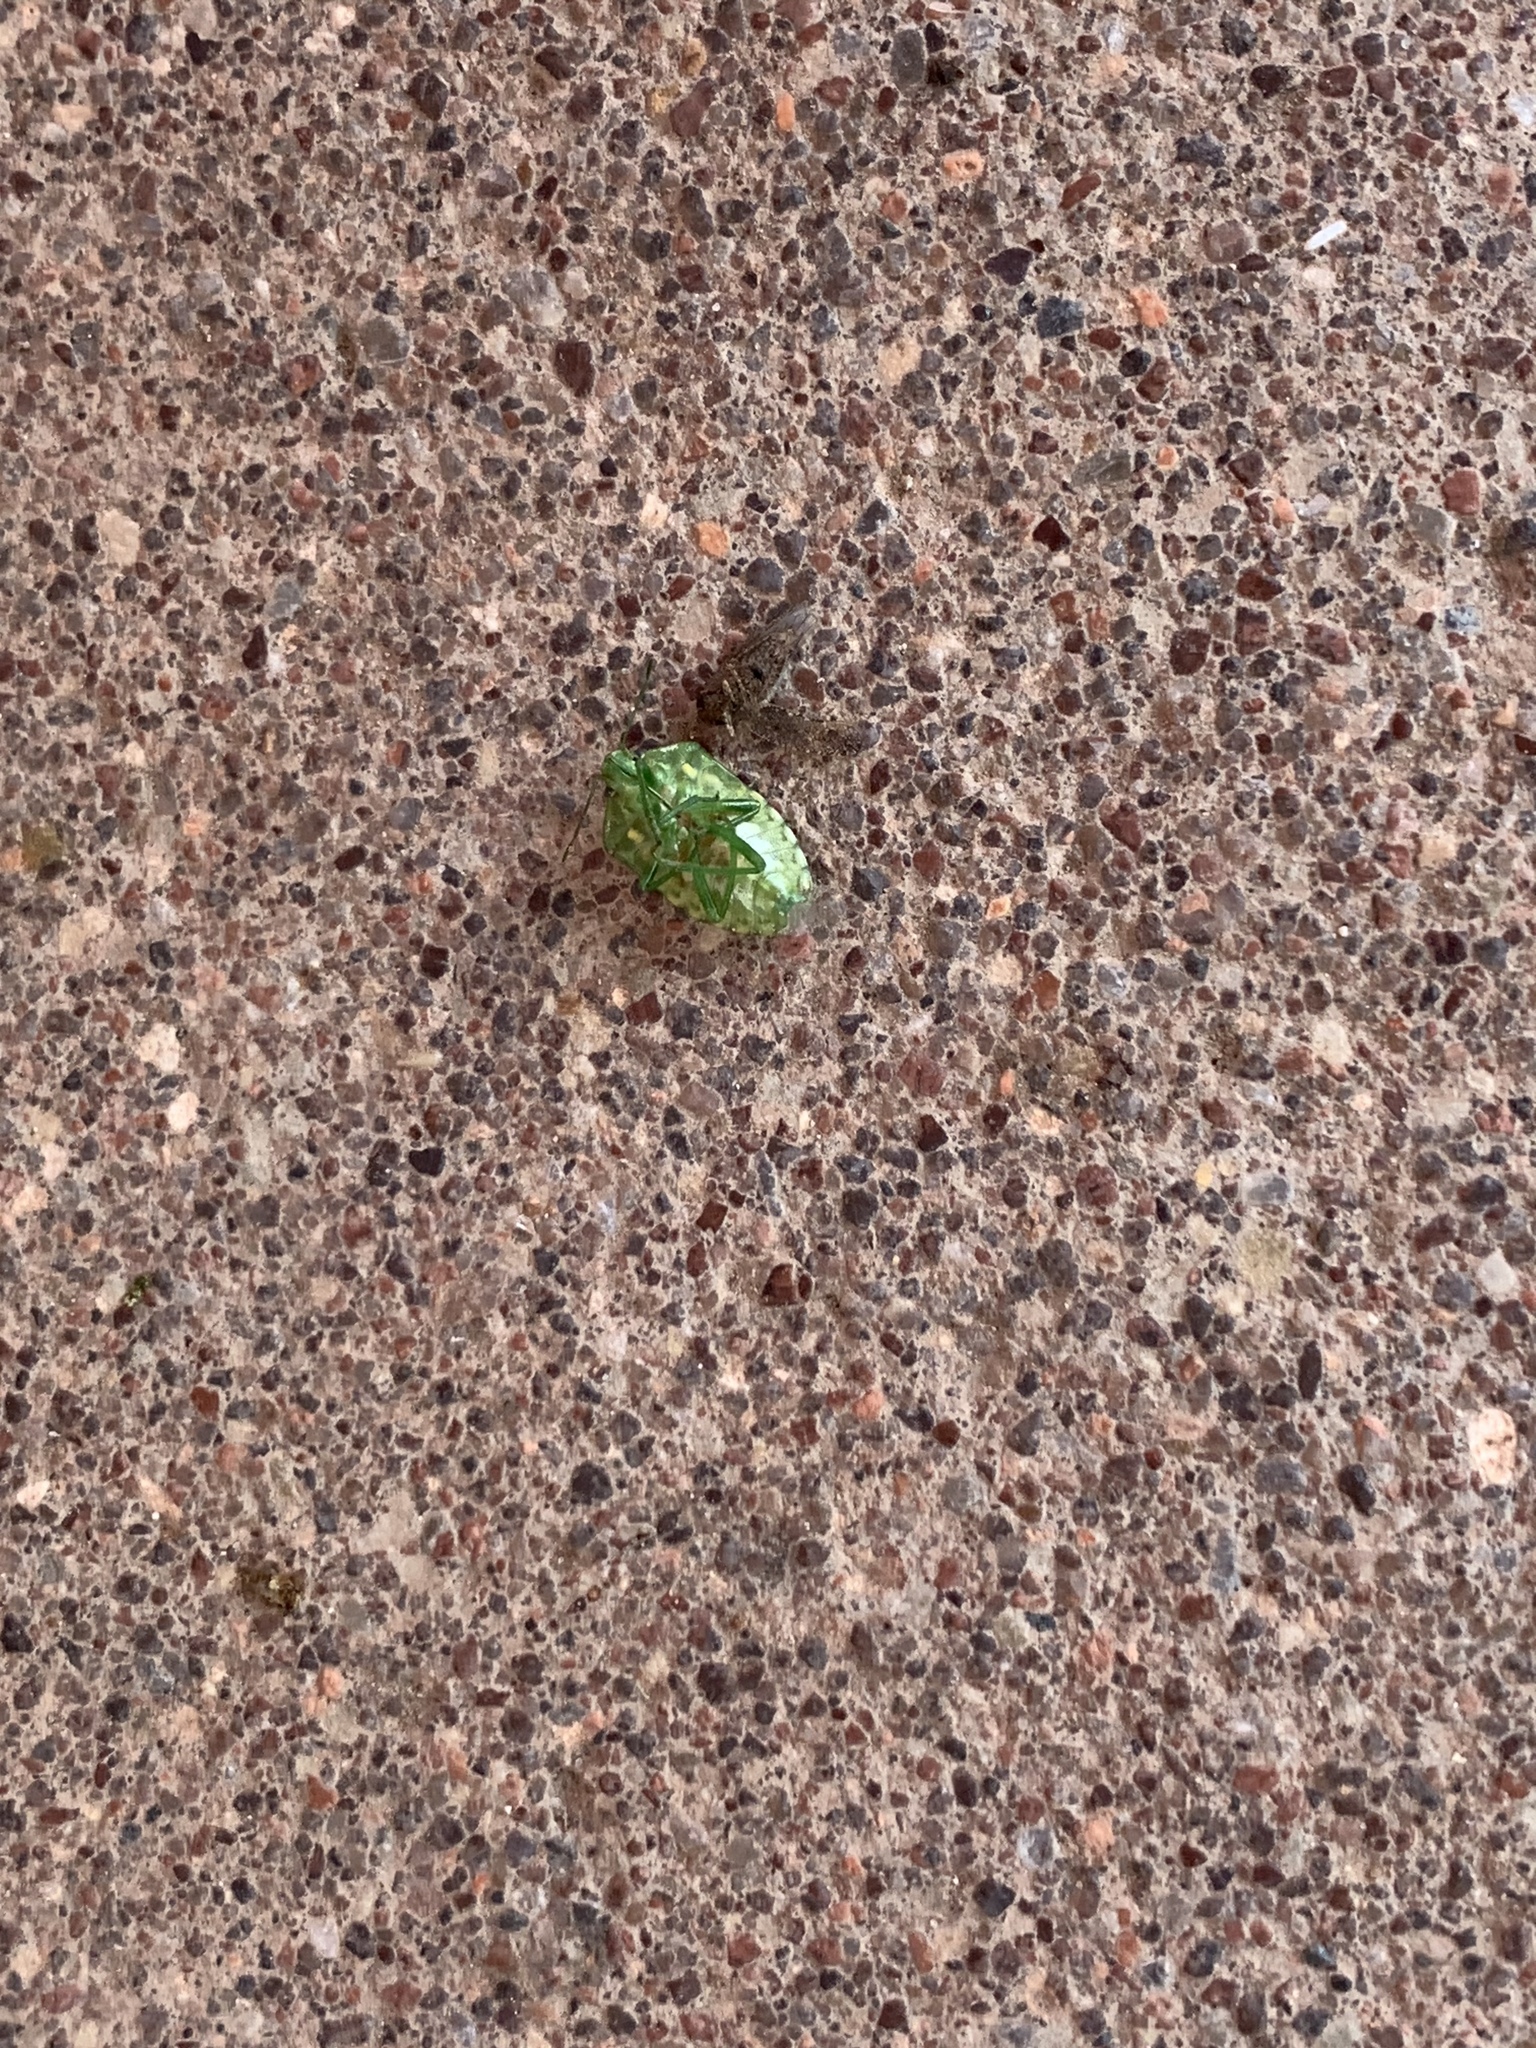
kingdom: Animalia
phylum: Arthropoda
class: Insecta
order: Hemiptera
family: Pentatomidae
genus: Banasa
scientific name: Banasa euchlora
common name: Cedar berry bug
